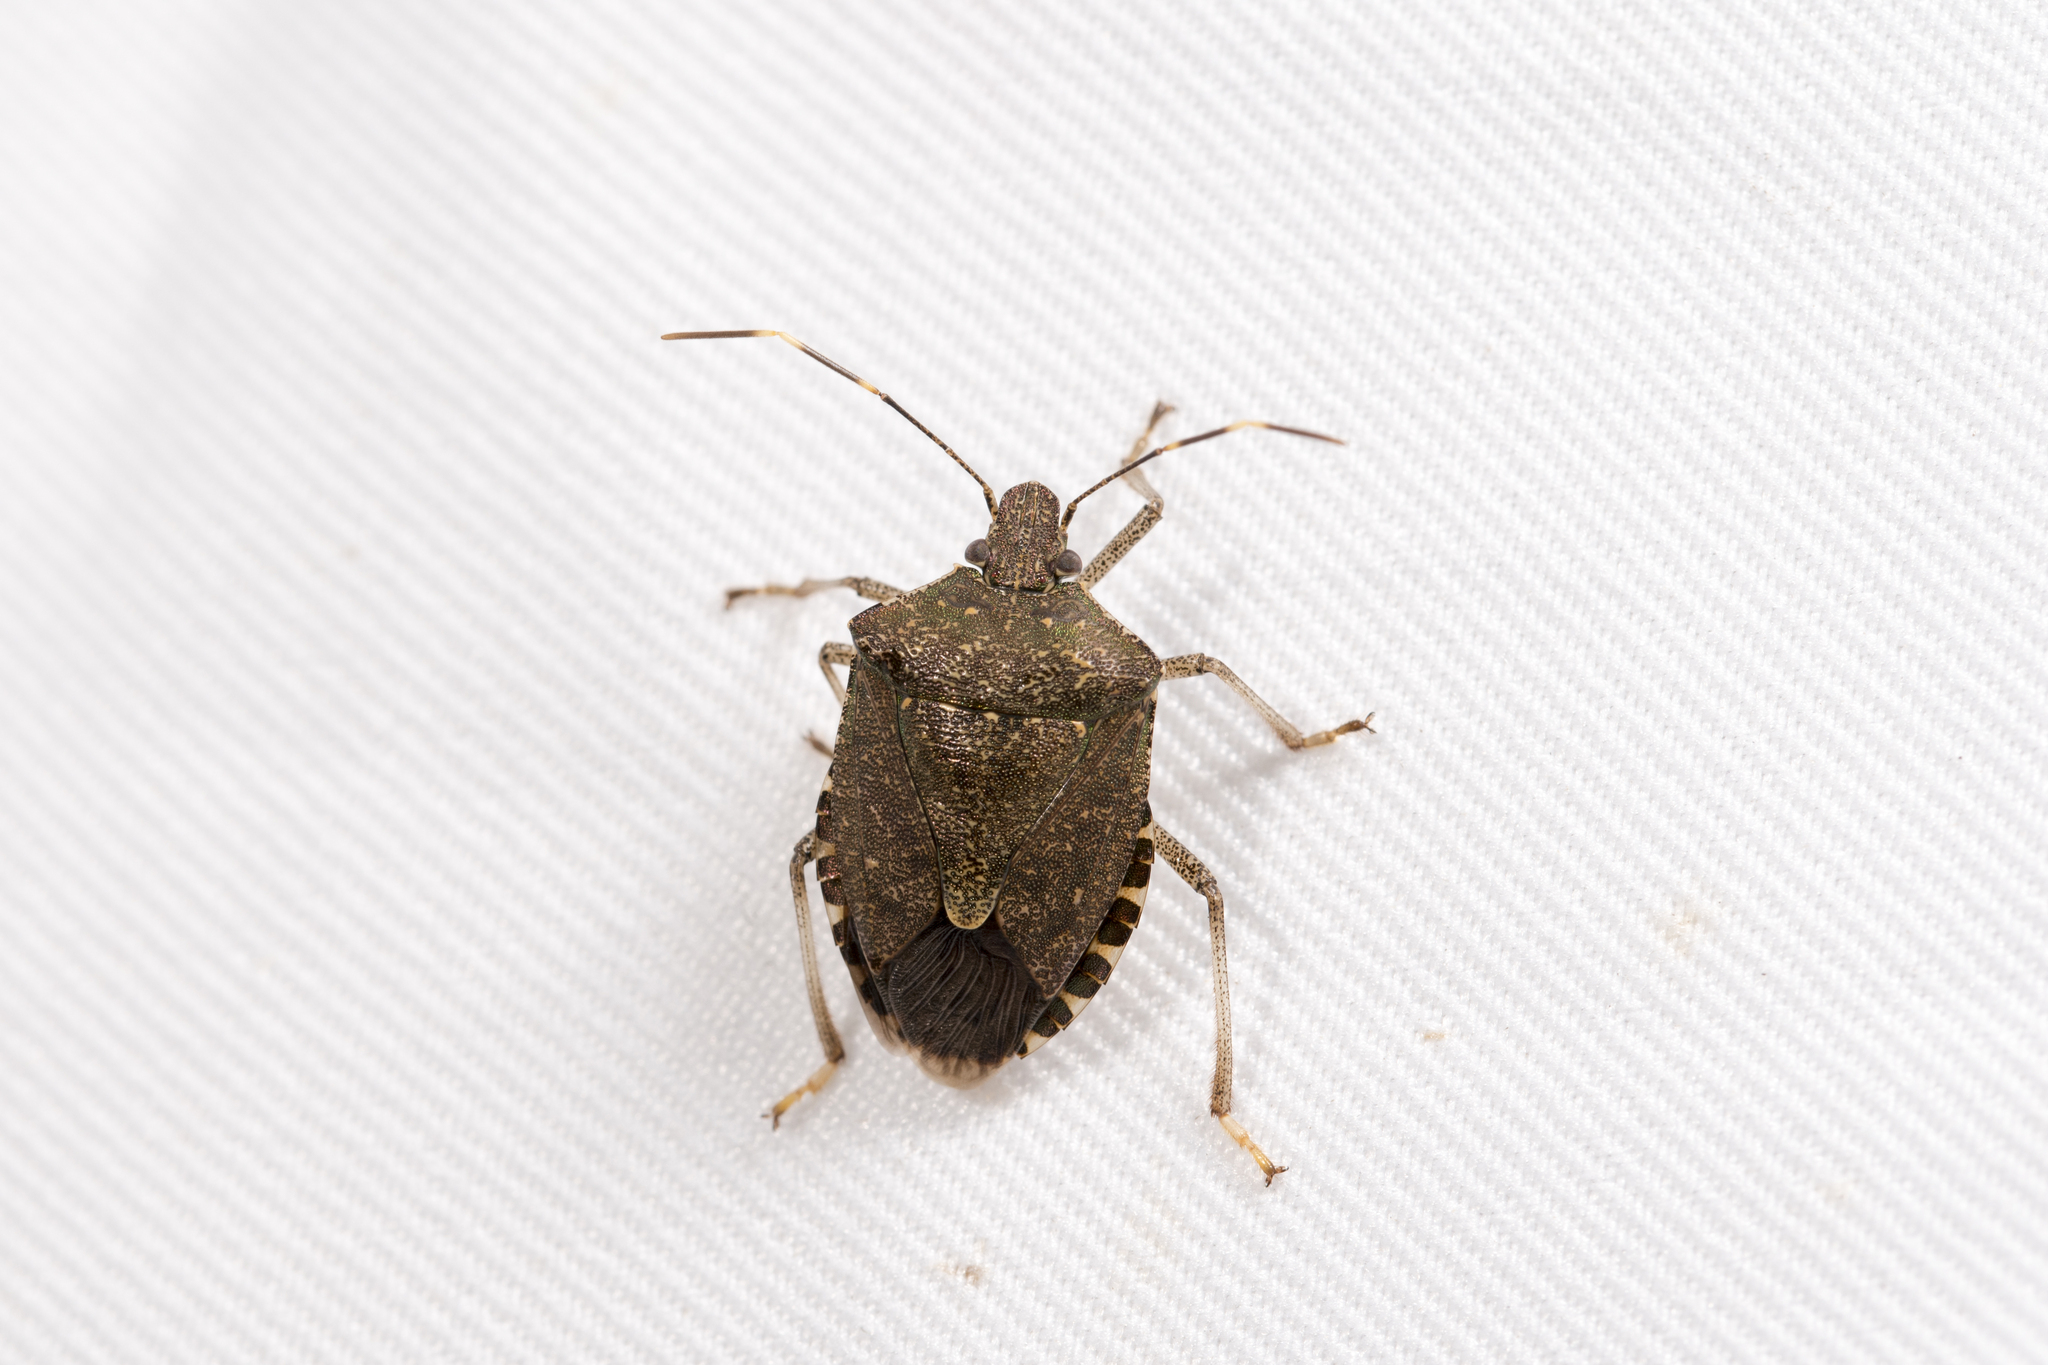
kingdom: Animalia
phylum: Arthropoda
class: Insecta
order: Hemiptera
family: Pentatomidae
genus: Halyomorpha
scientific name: Halyomorpha halys
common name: Brown marmorated stink bug
